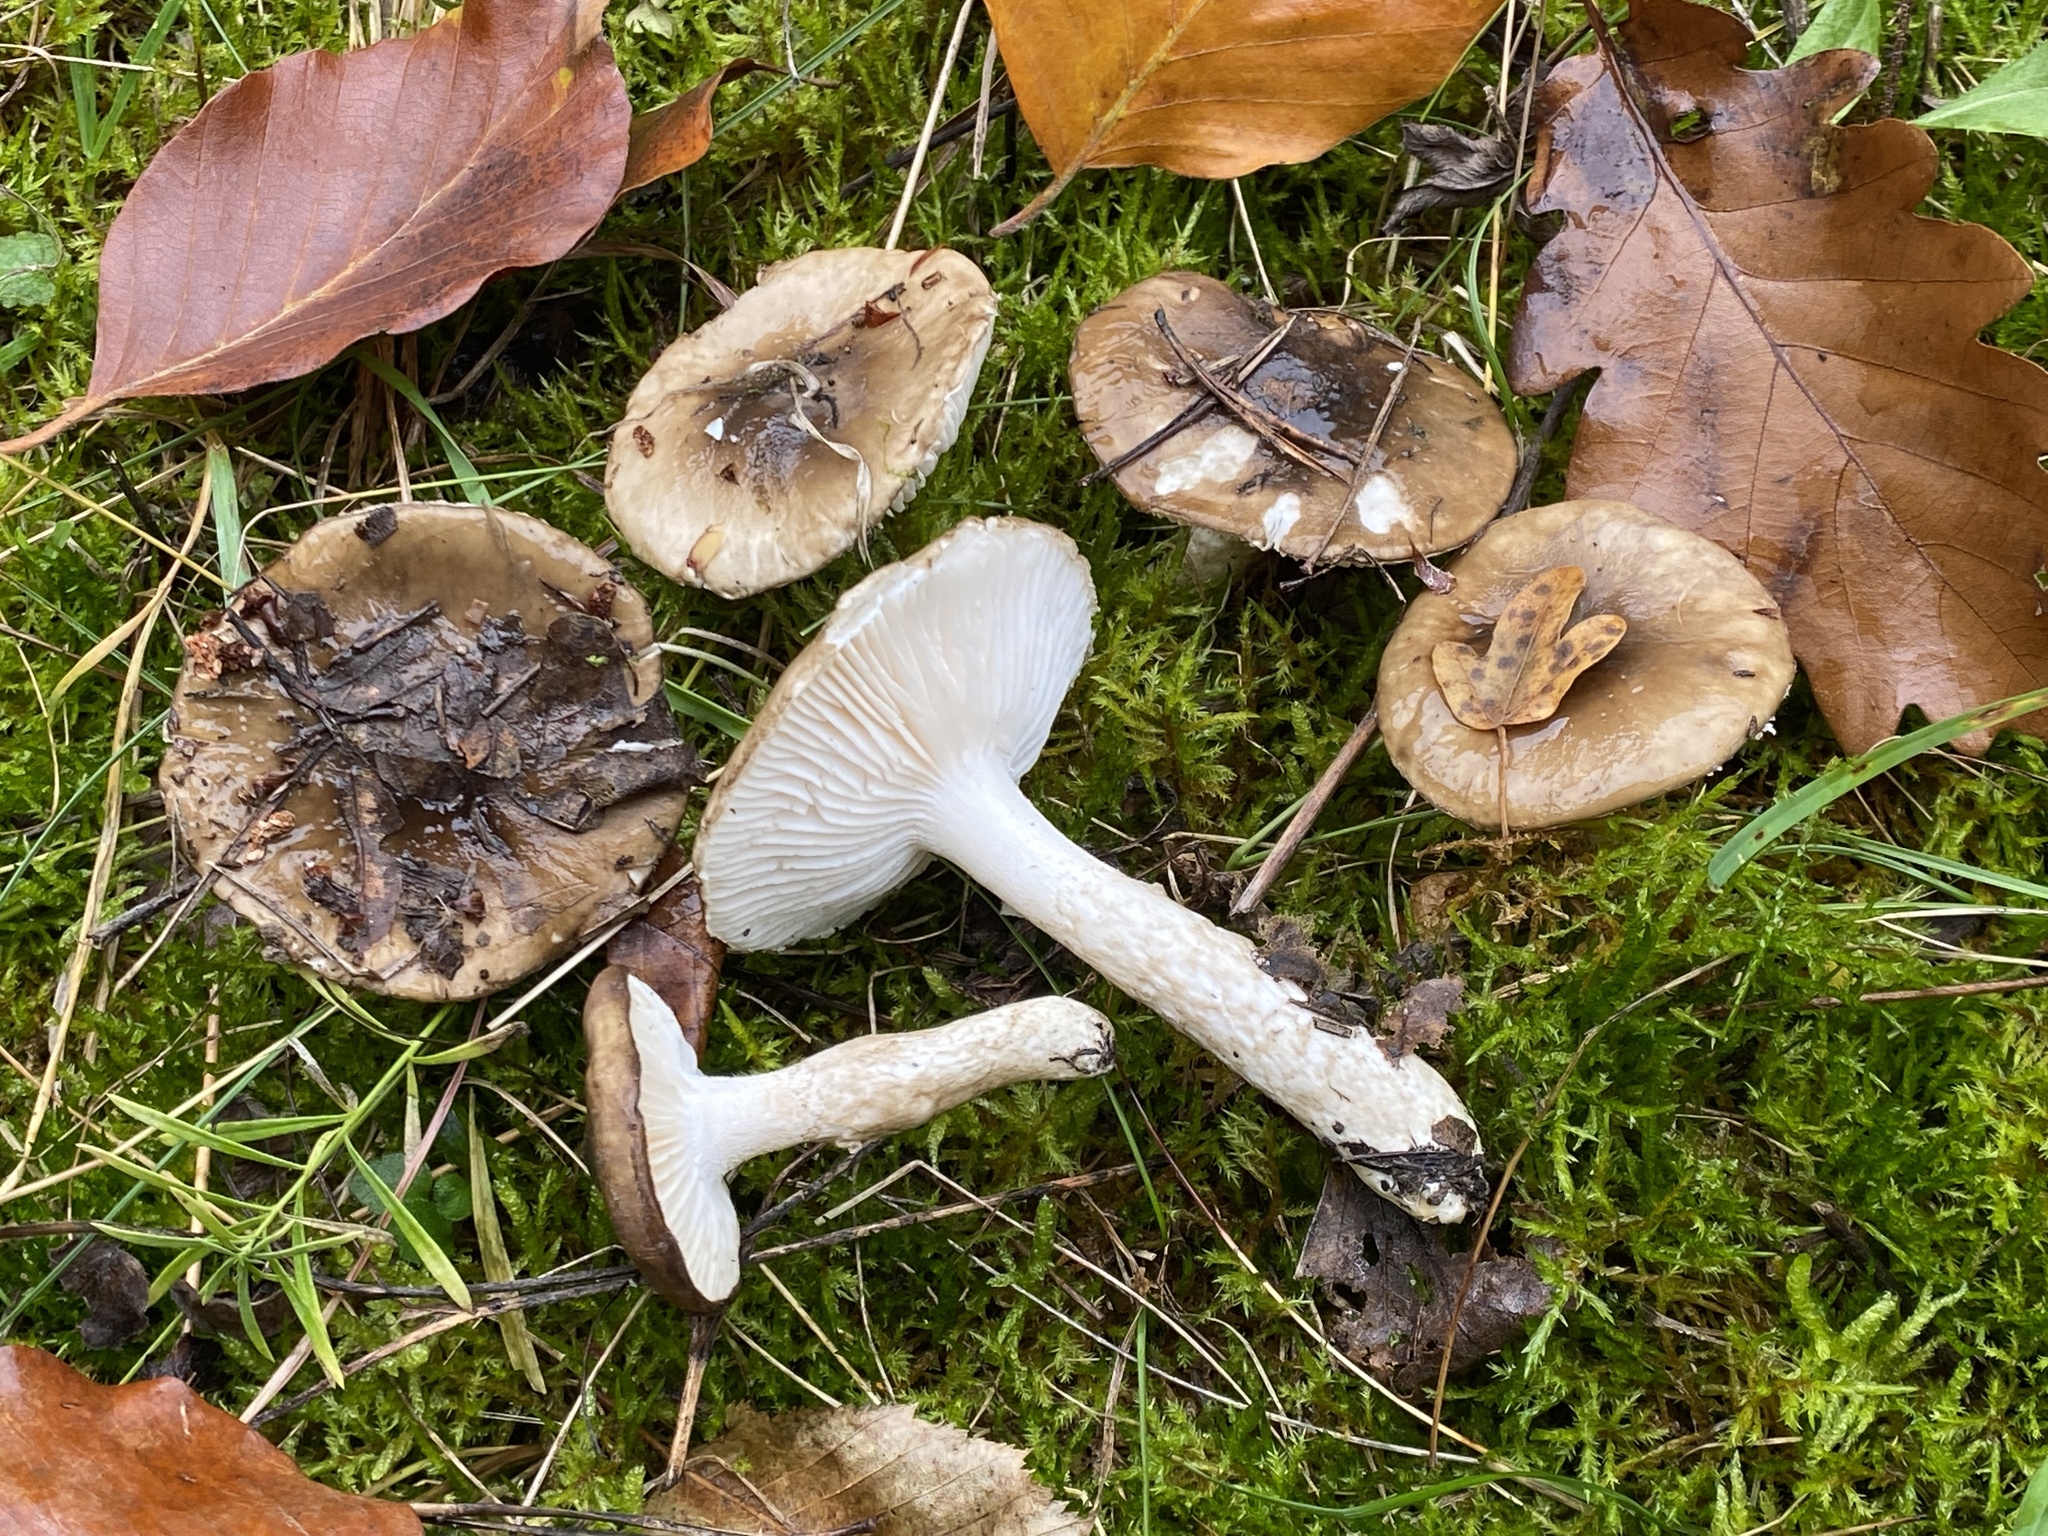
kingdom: Fungi
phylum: Basidiomycota
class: Agaricomycetes
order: Agaricales
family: Hygrophoraceae
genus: Hygrophorus
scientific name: Hygrophorus glutinifer
